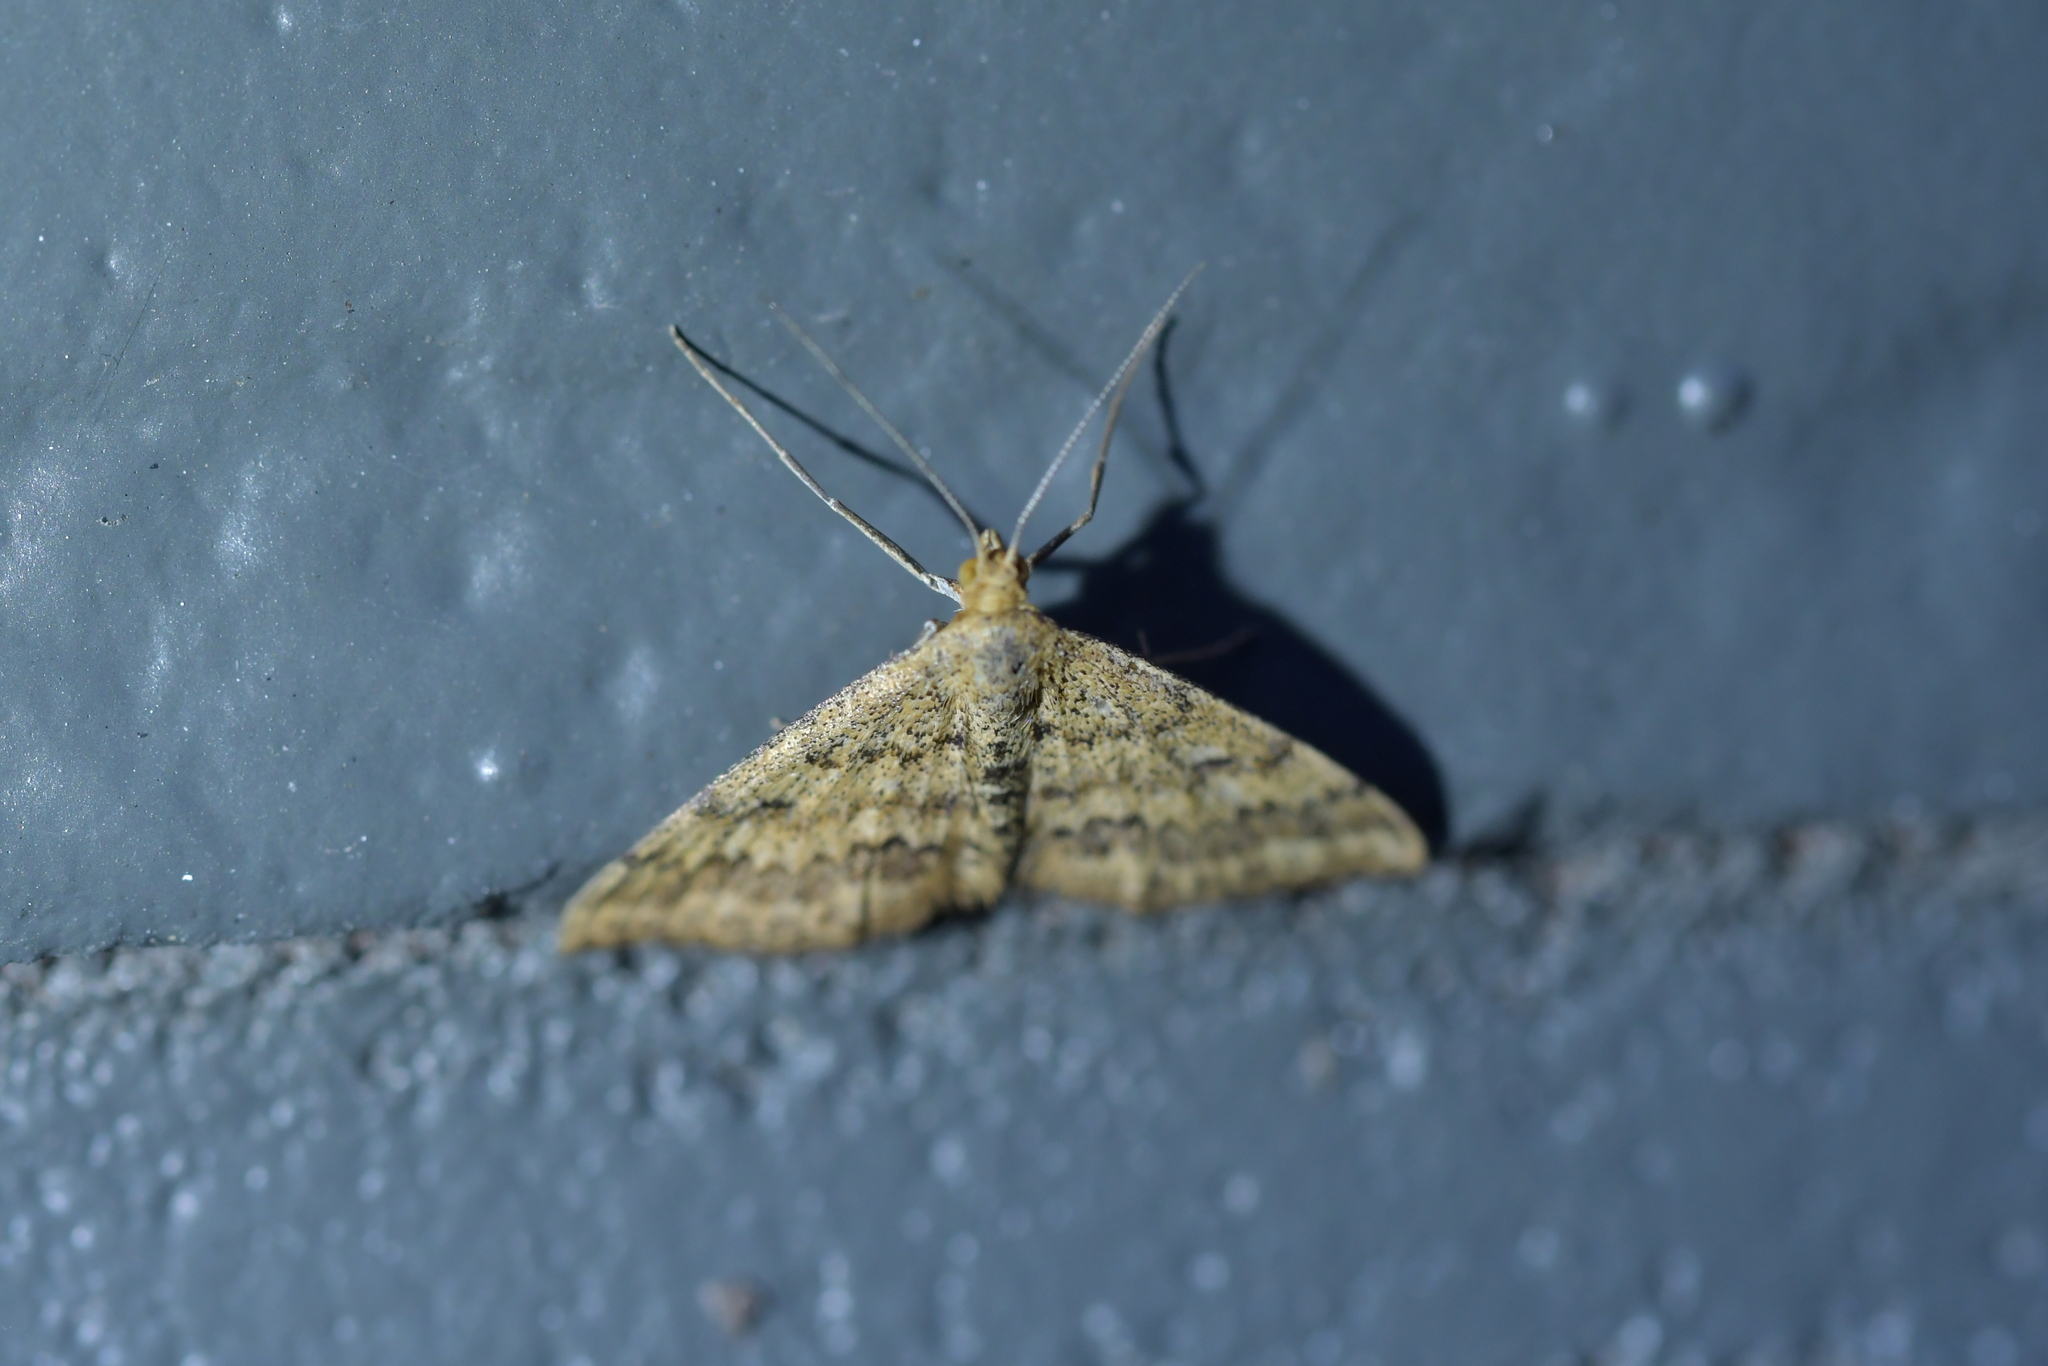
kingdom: Animalia
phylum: Arthropoda
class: Insecta
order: Lepidoptera
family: Geometridae
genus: Scopula
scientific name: Scopula rubraria
